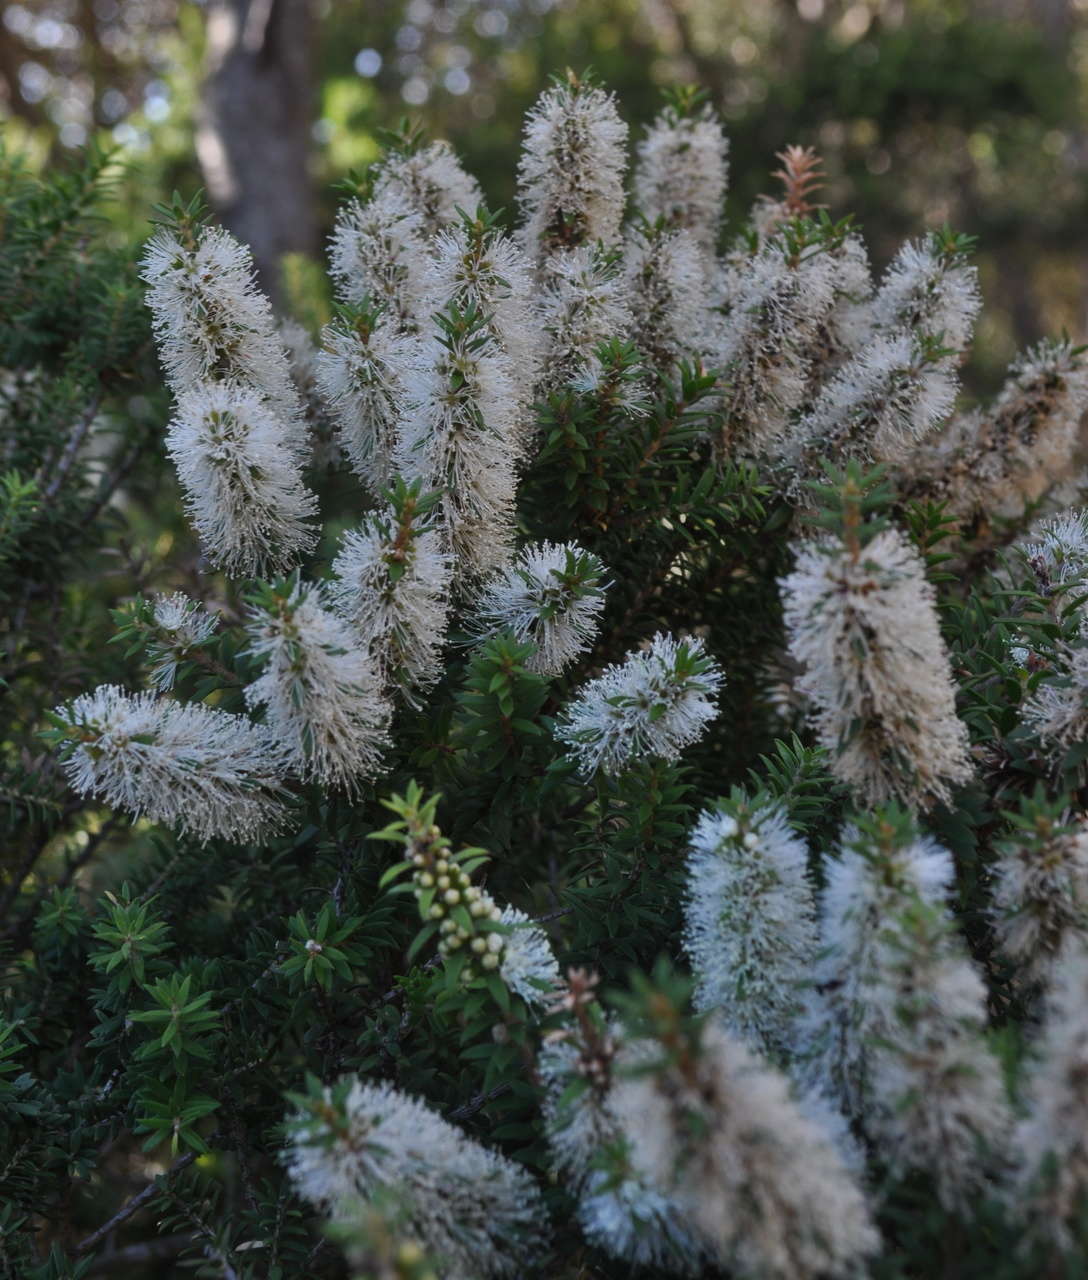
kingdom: Plantae
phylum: Tracheophyta
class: Magnoliopsida
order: Myrtales
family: Myrtaceae
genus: Melaleuca
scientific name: Melaleuca lanceolata
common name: Rottnest island teatree
